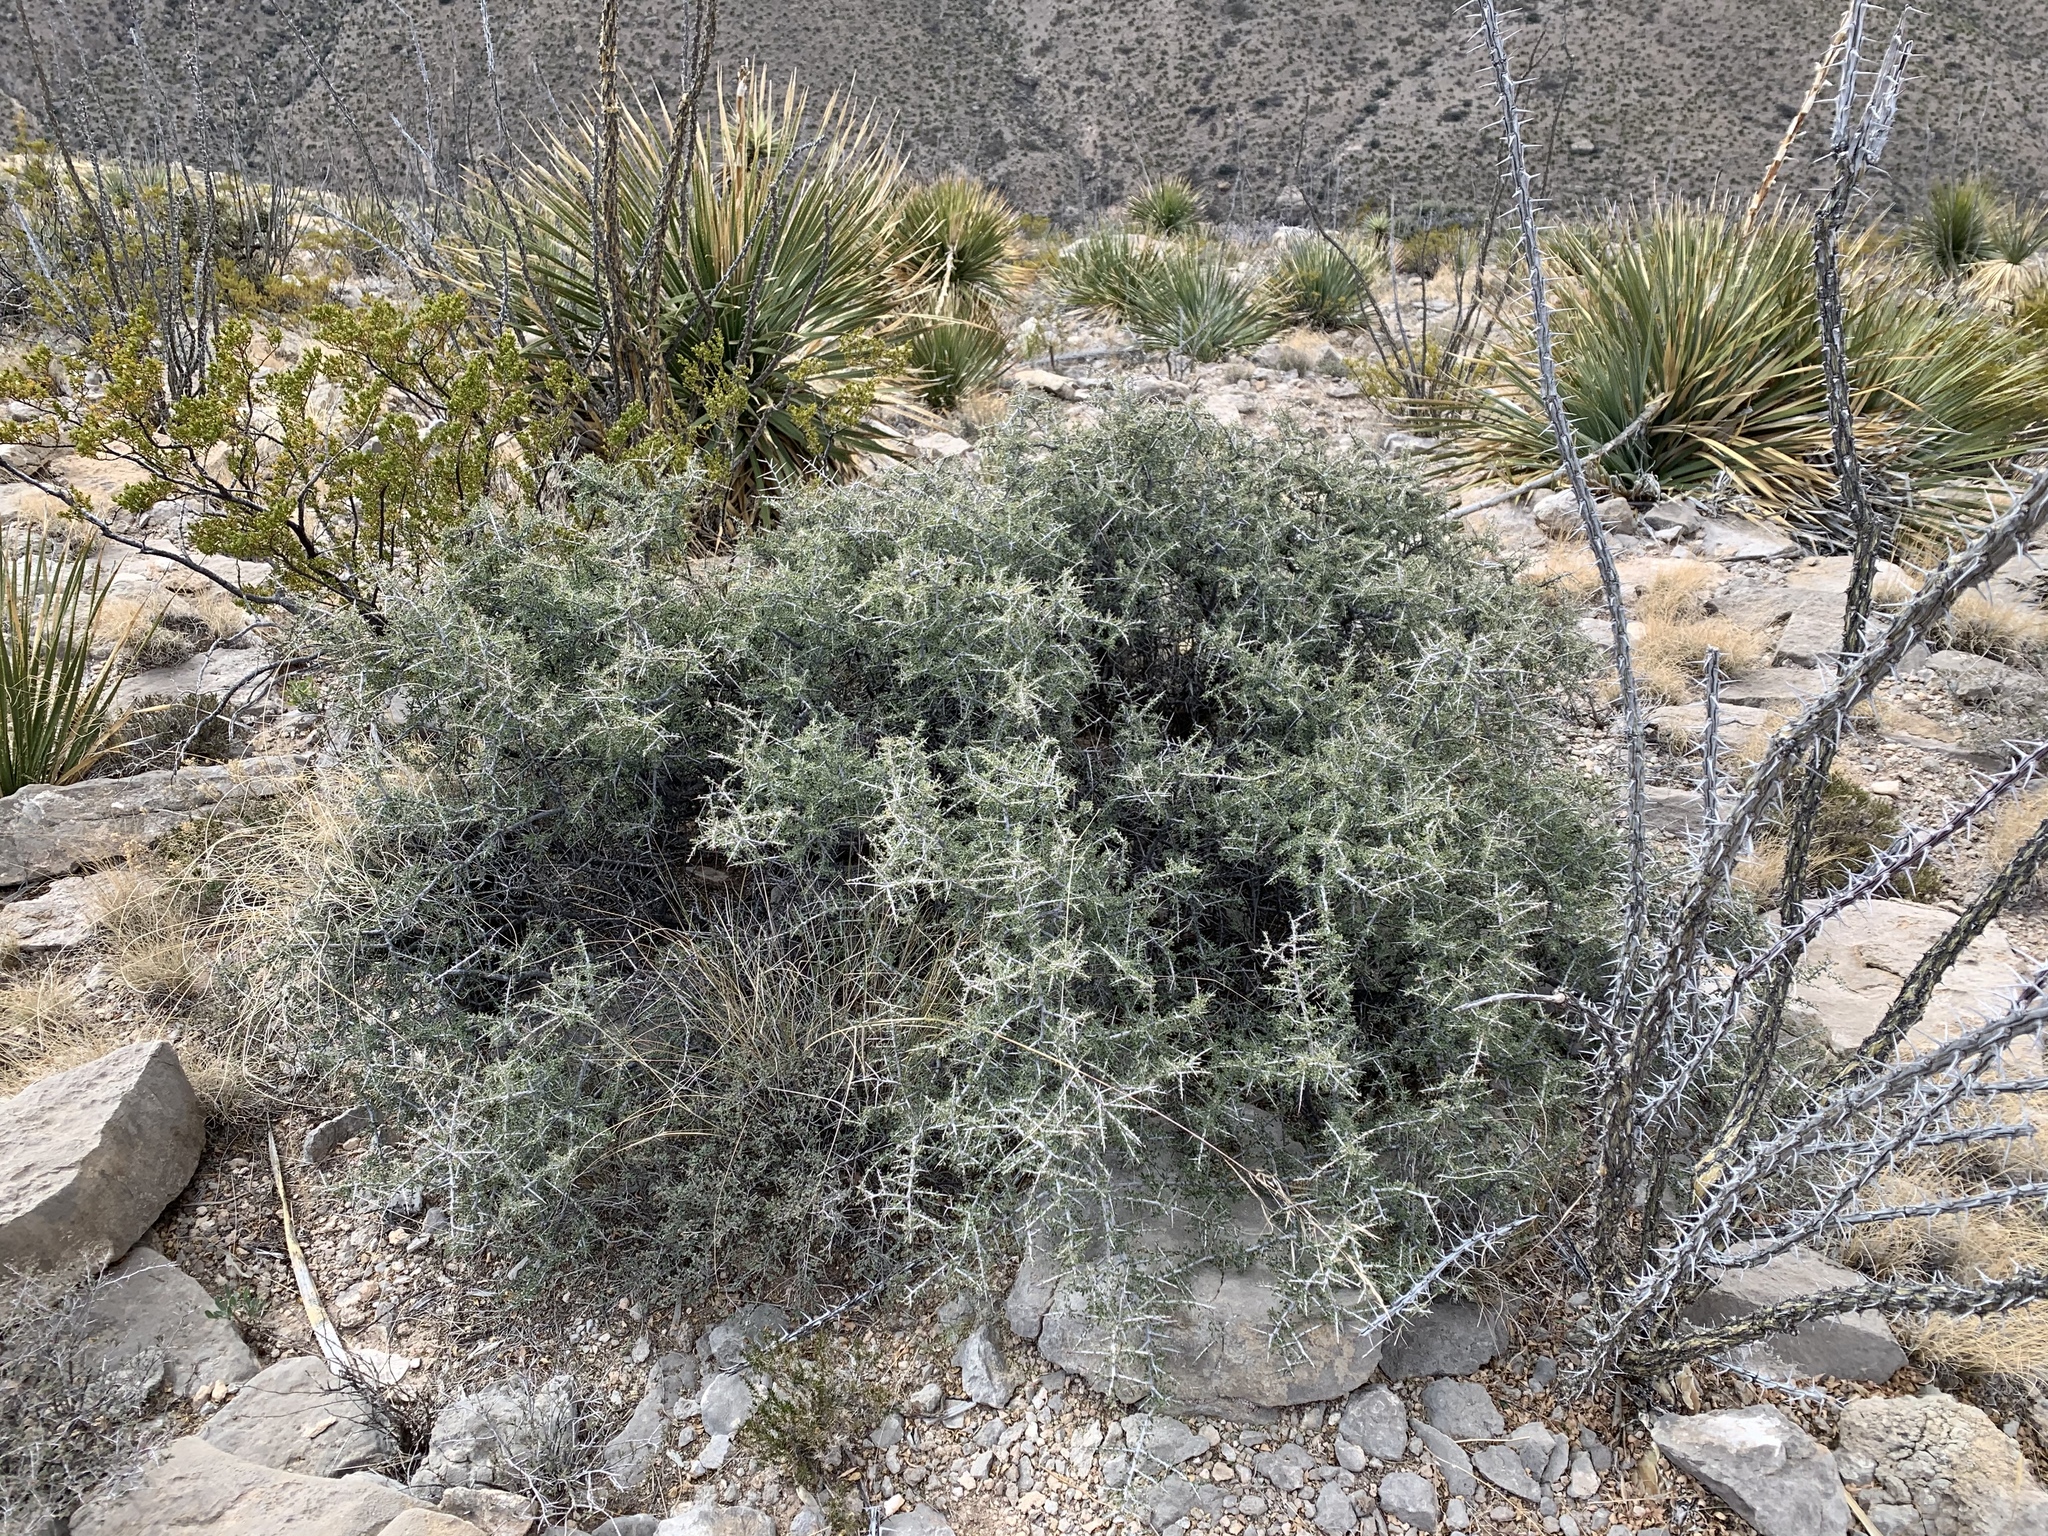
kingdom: Plantae
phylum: Tracheophyta
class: Magnoliopsida
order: Rosales
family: Rhamnaceae
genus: Condalia
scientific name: Condalia warnockii
